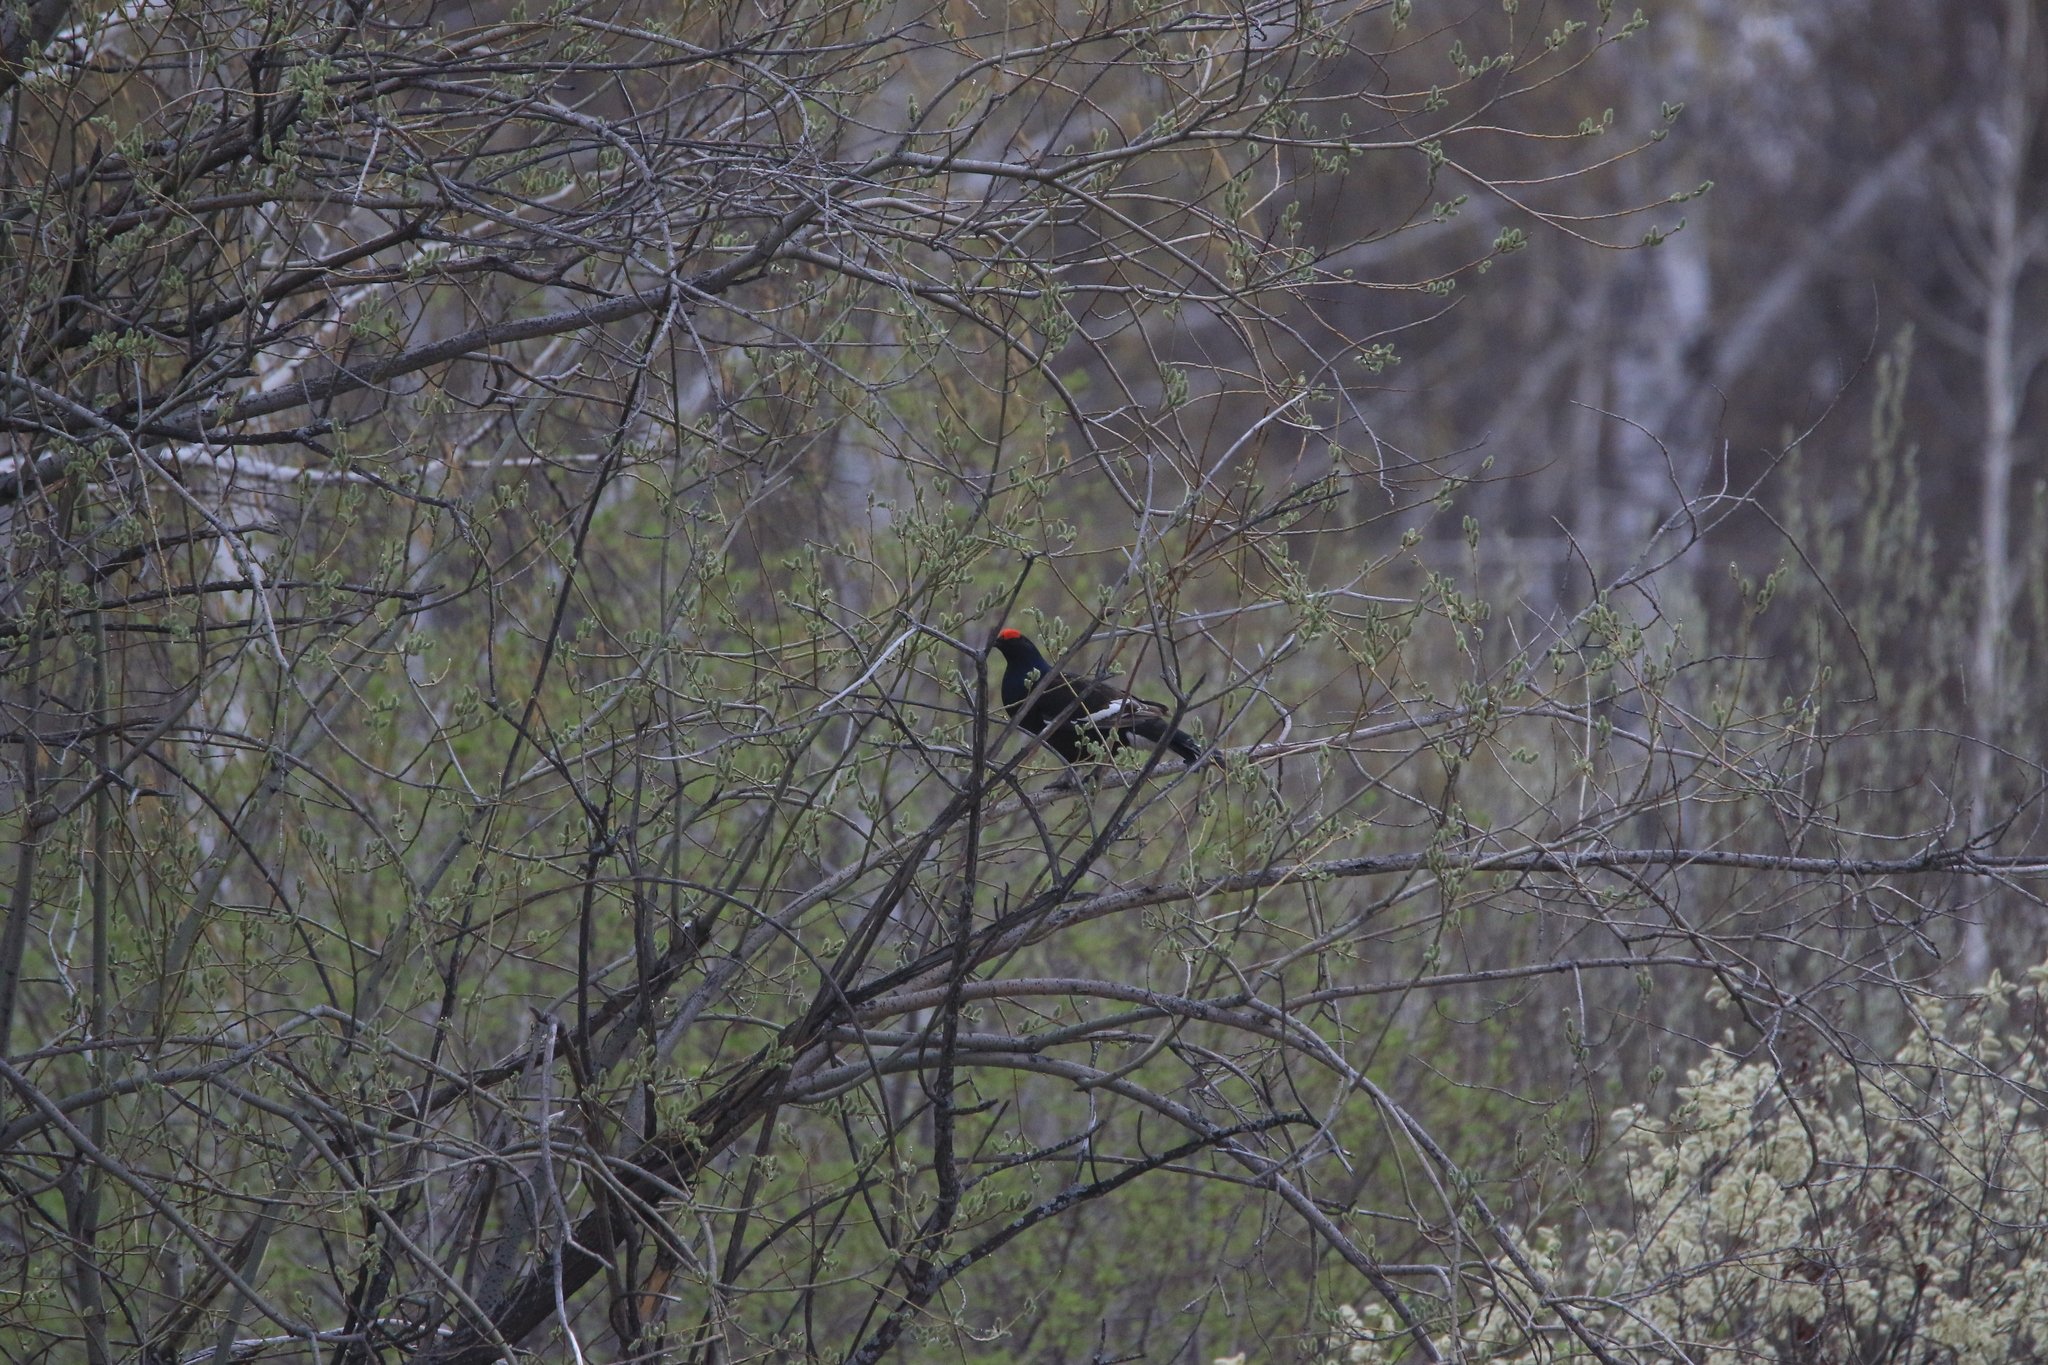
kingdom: Animalia
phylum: Chordata
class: Aves
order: Galliformes
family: Phasianidae
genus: Lyrurus
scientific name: Lyrurus tetrix
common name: Black grouse
